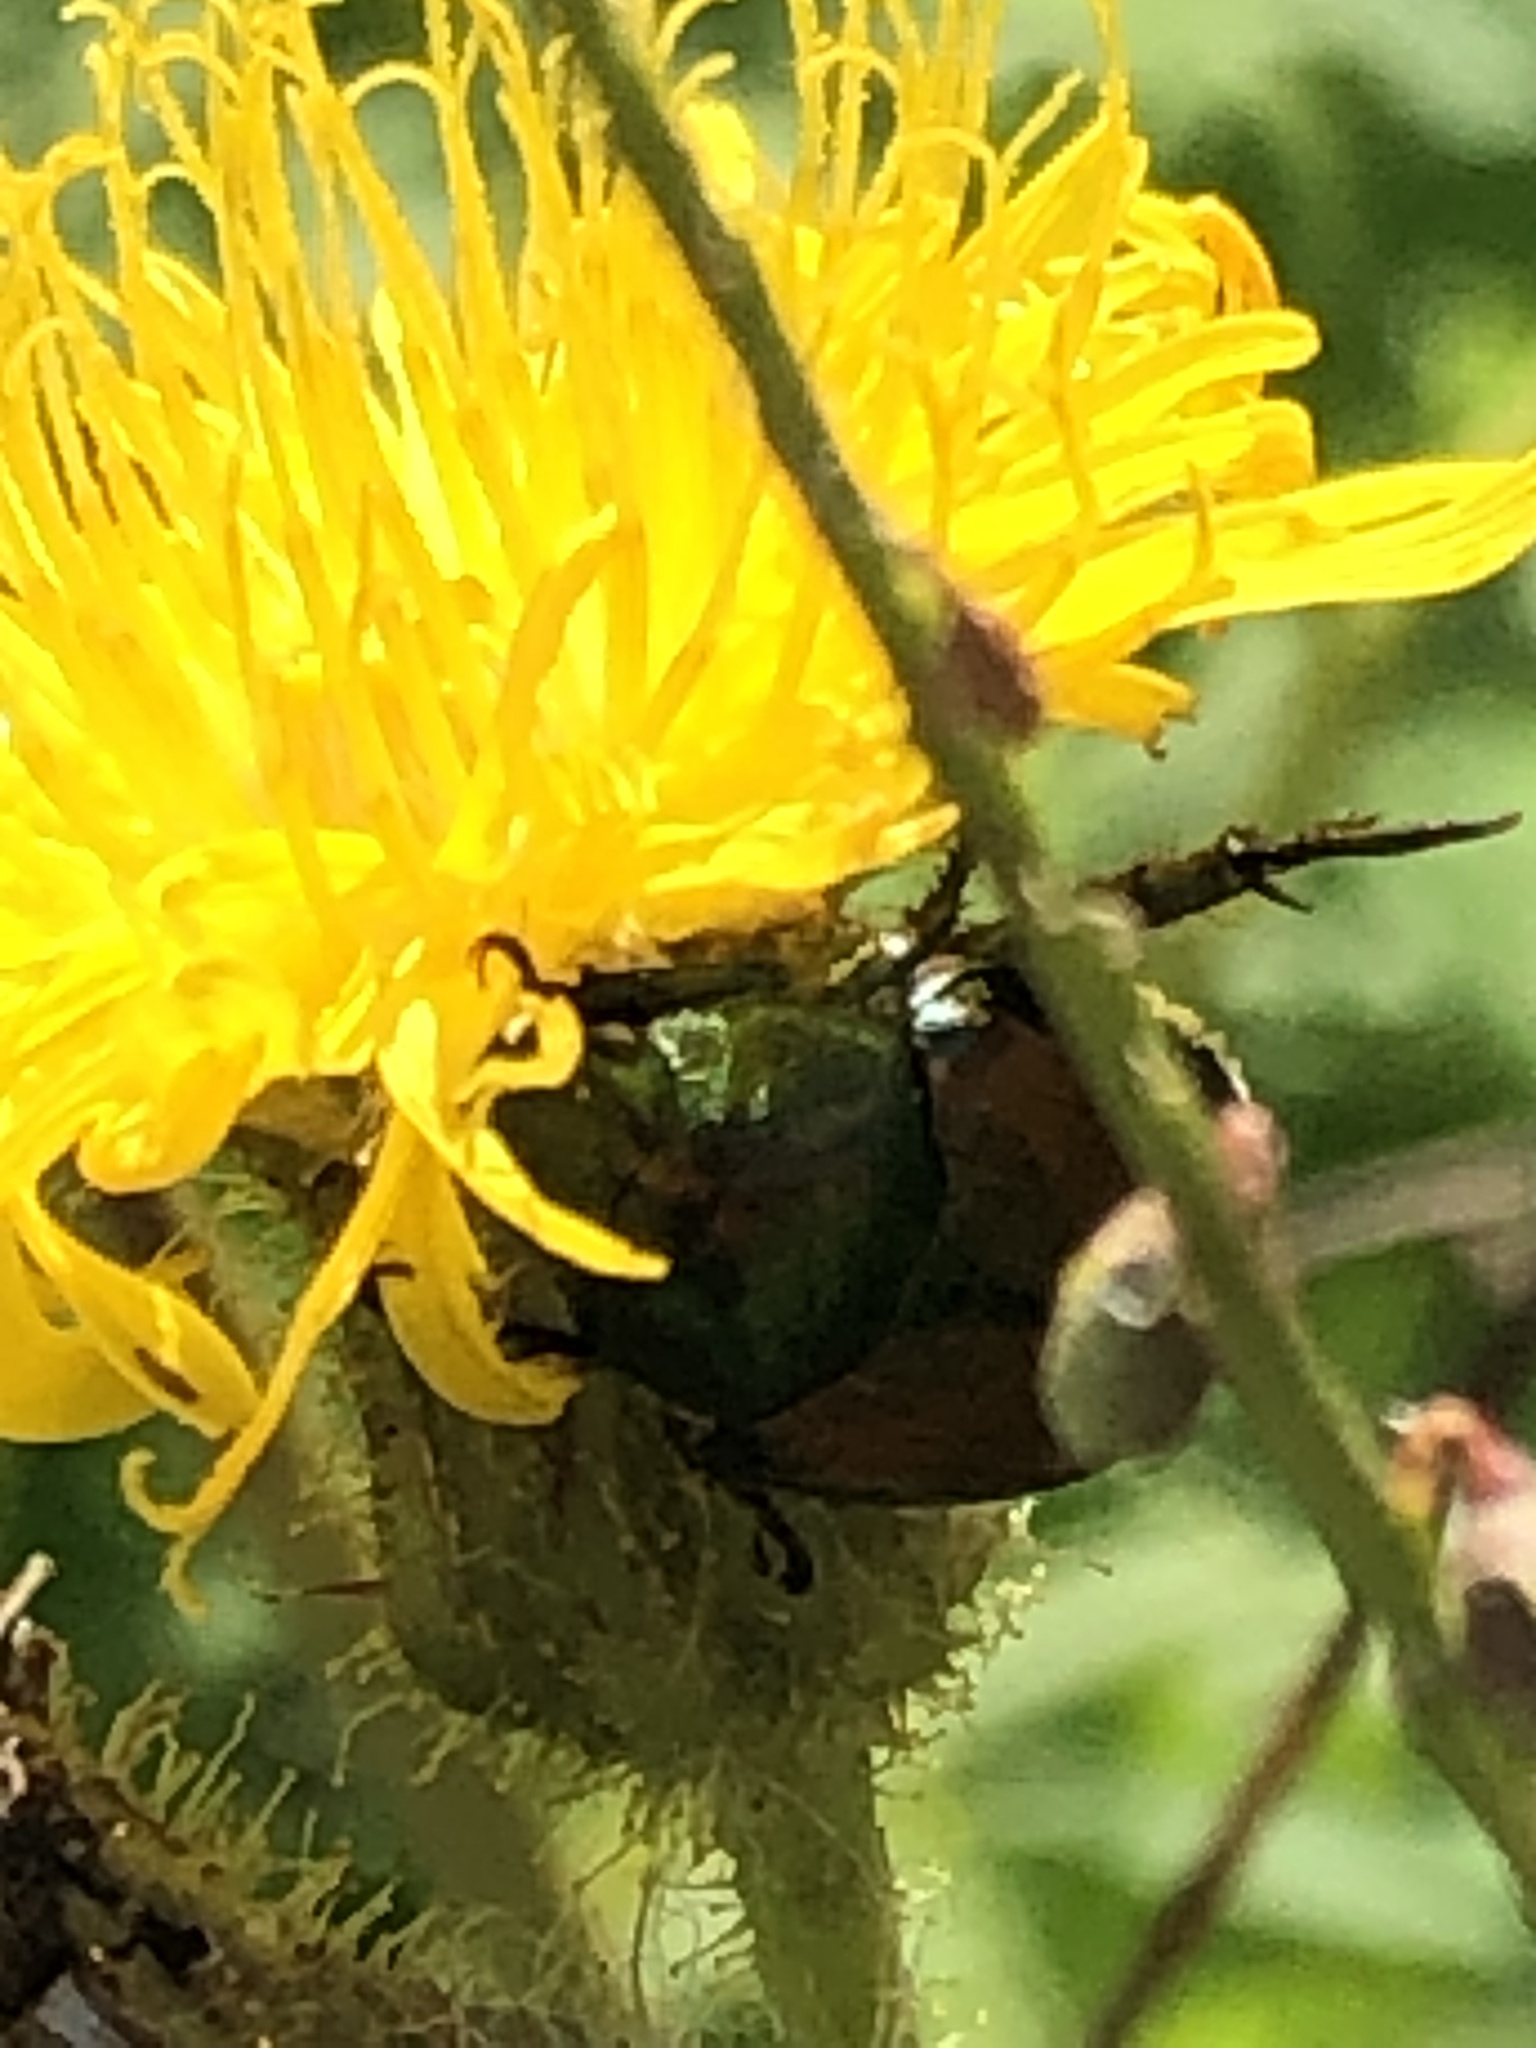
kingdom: Animalia
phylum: Arthropoda
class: Insecta
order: Coleoptera
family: Scarabaeidae
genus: Popillia
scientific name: Popillia japonica
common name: Japanese beetle
